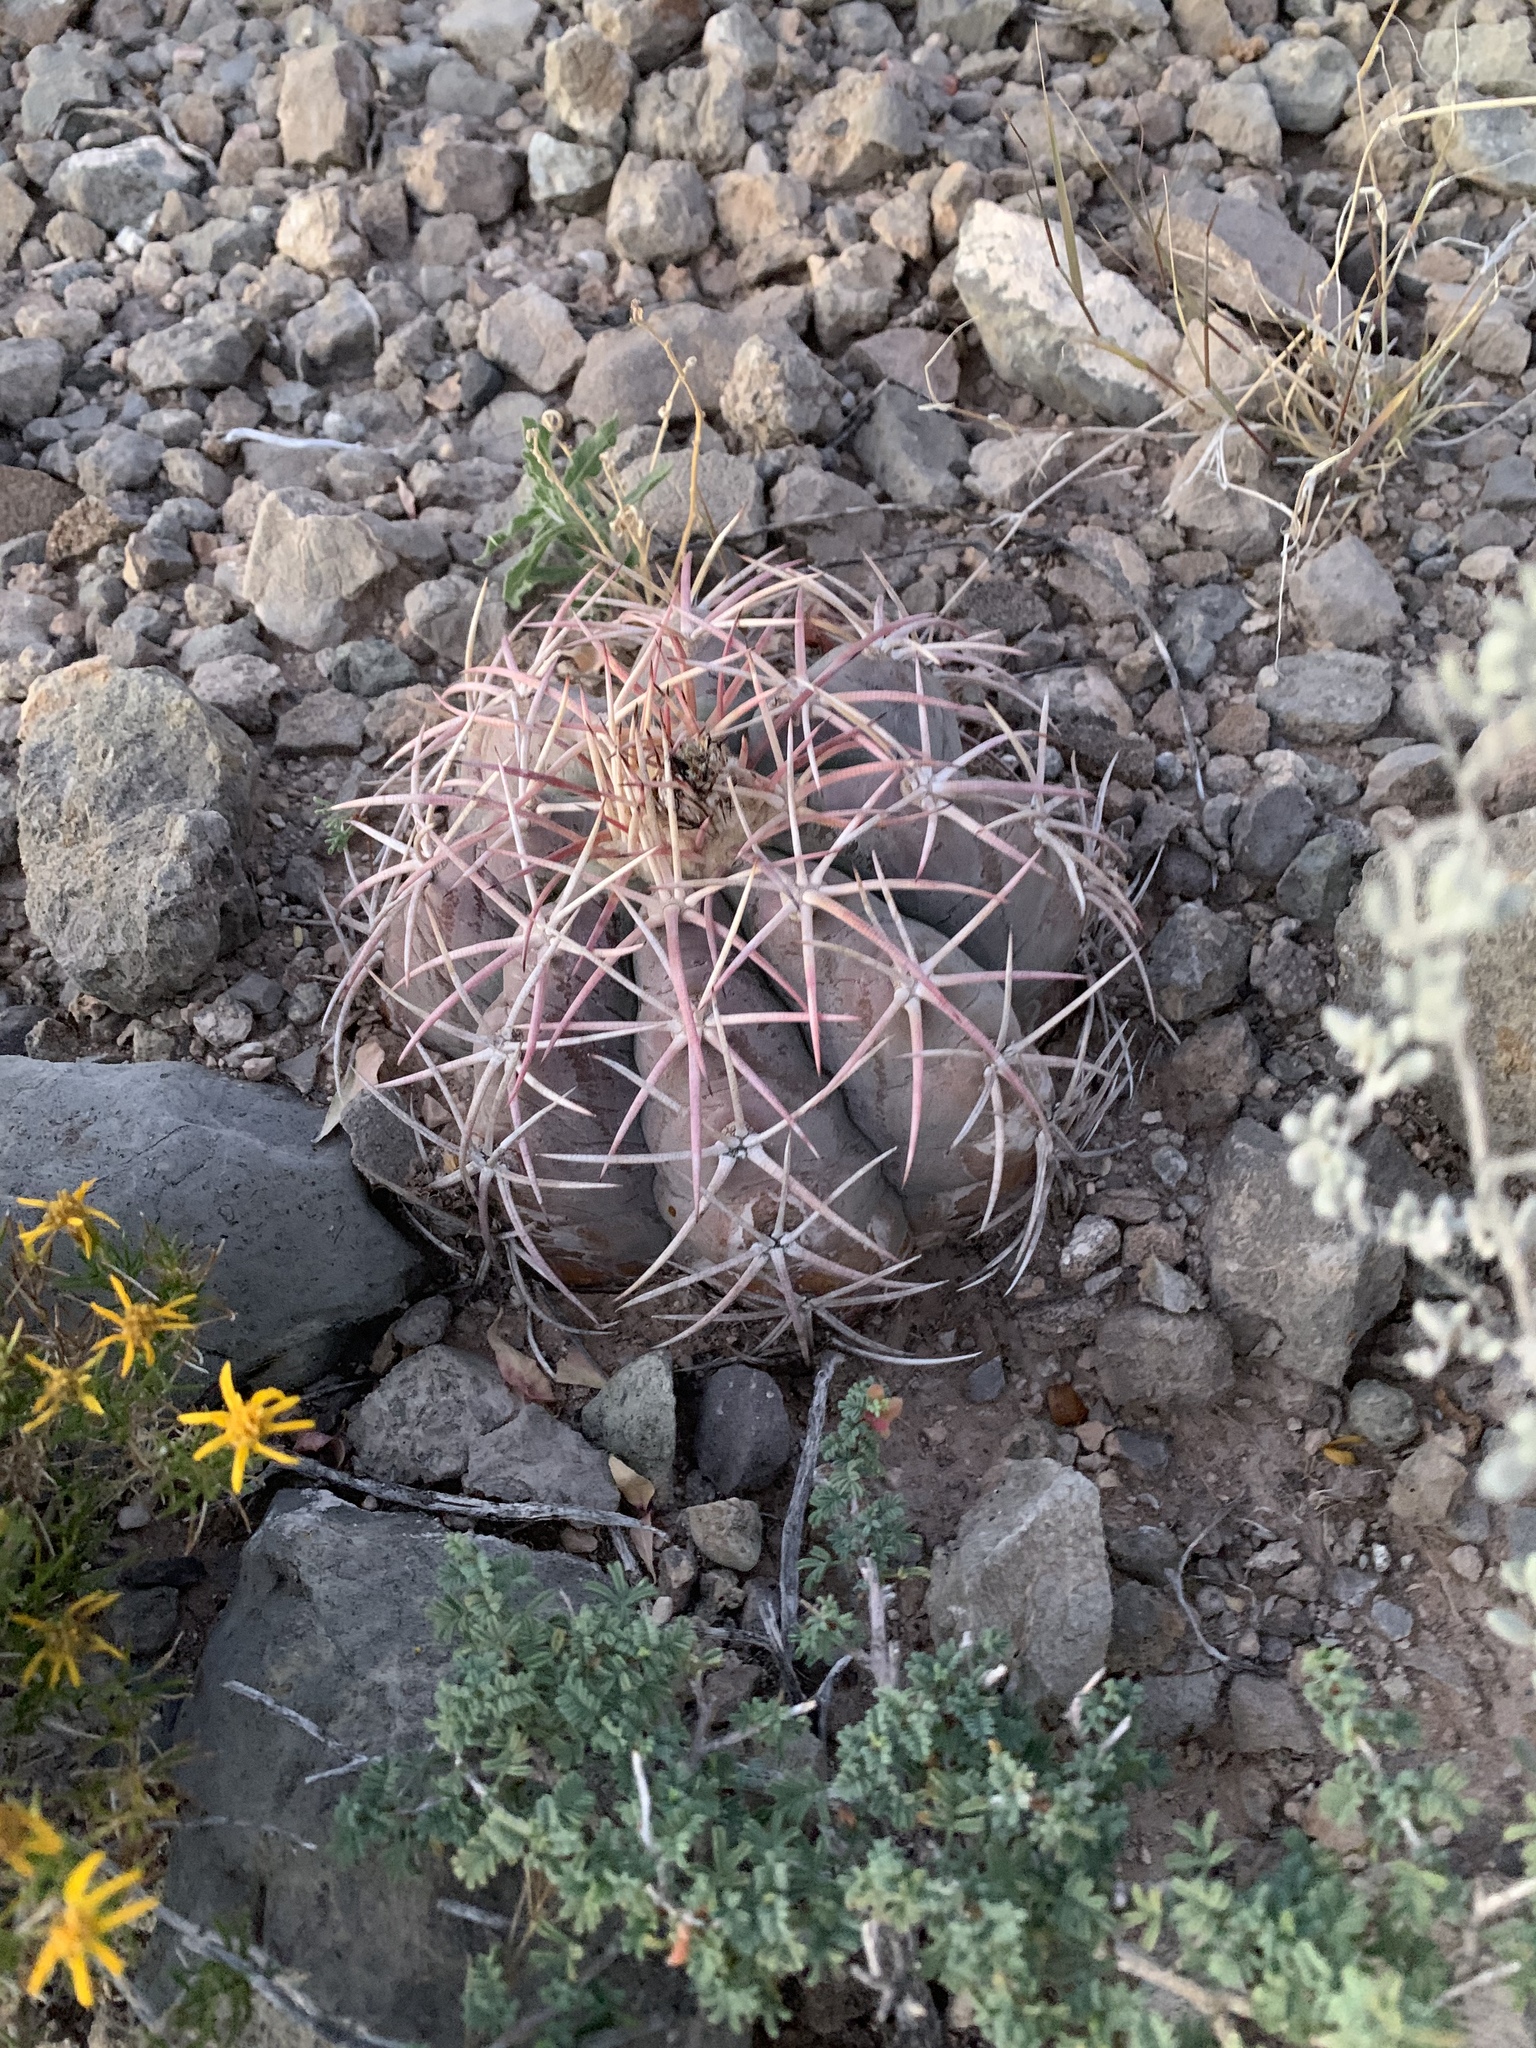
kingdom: Plantae
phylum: Tracheophyta
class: Magnoliopsida
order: Caryophyllales
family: Cactaceae
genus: Echinocactus
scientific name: Echinocactus horizonthalonius
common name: Devilshead
